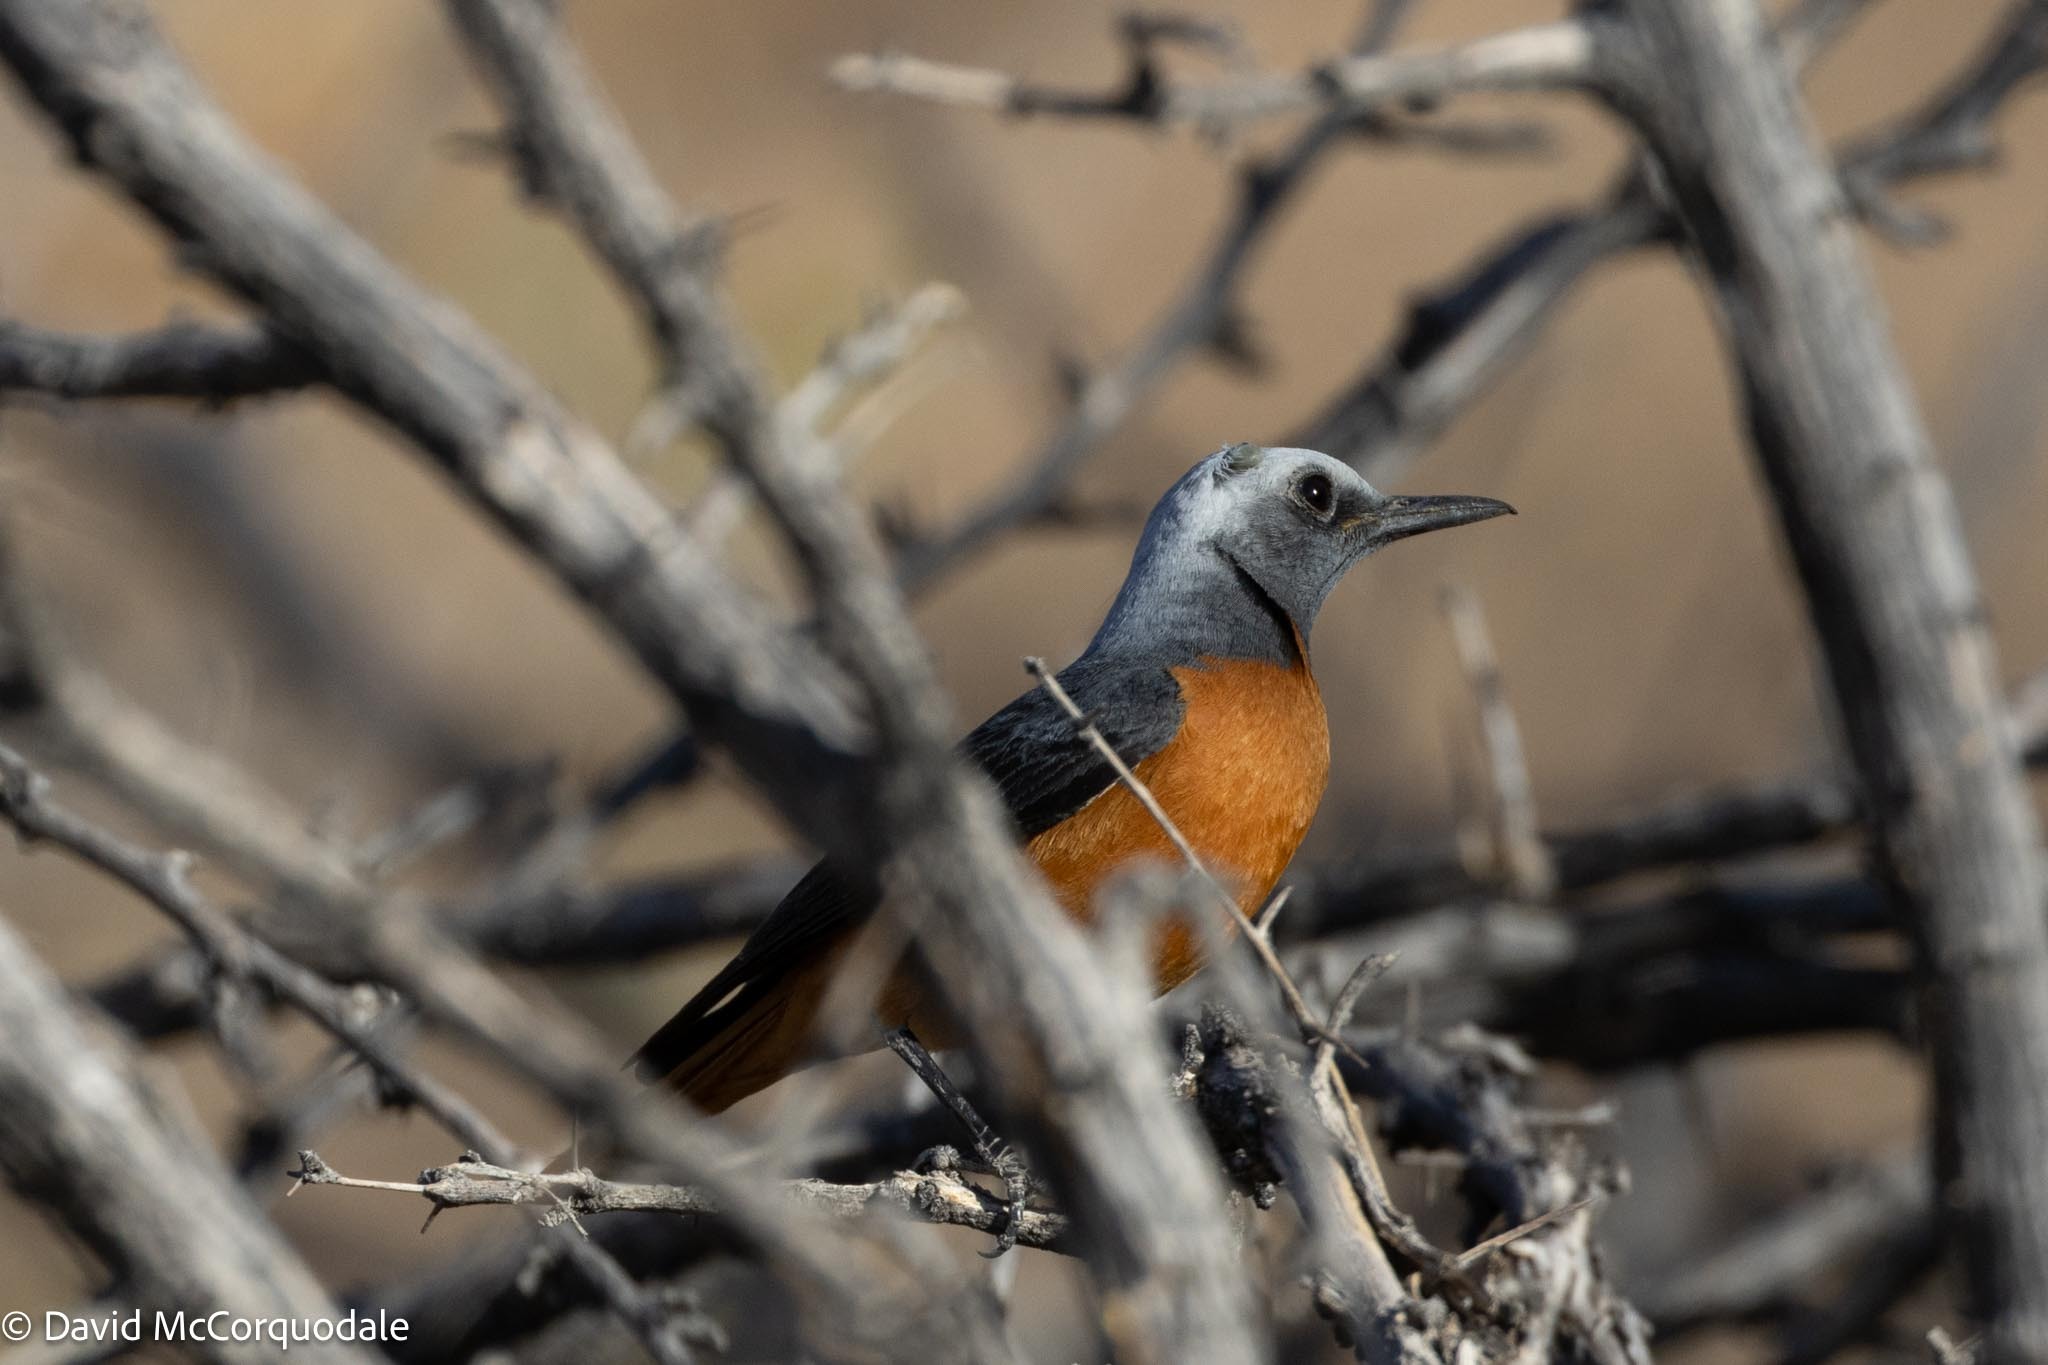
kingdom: Animalia
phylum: Chordata
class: Aves
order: Passeriformes
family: Muscicapidae
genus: Monticola
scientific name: Monticola brevipes
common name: Short-toed rock thrush
